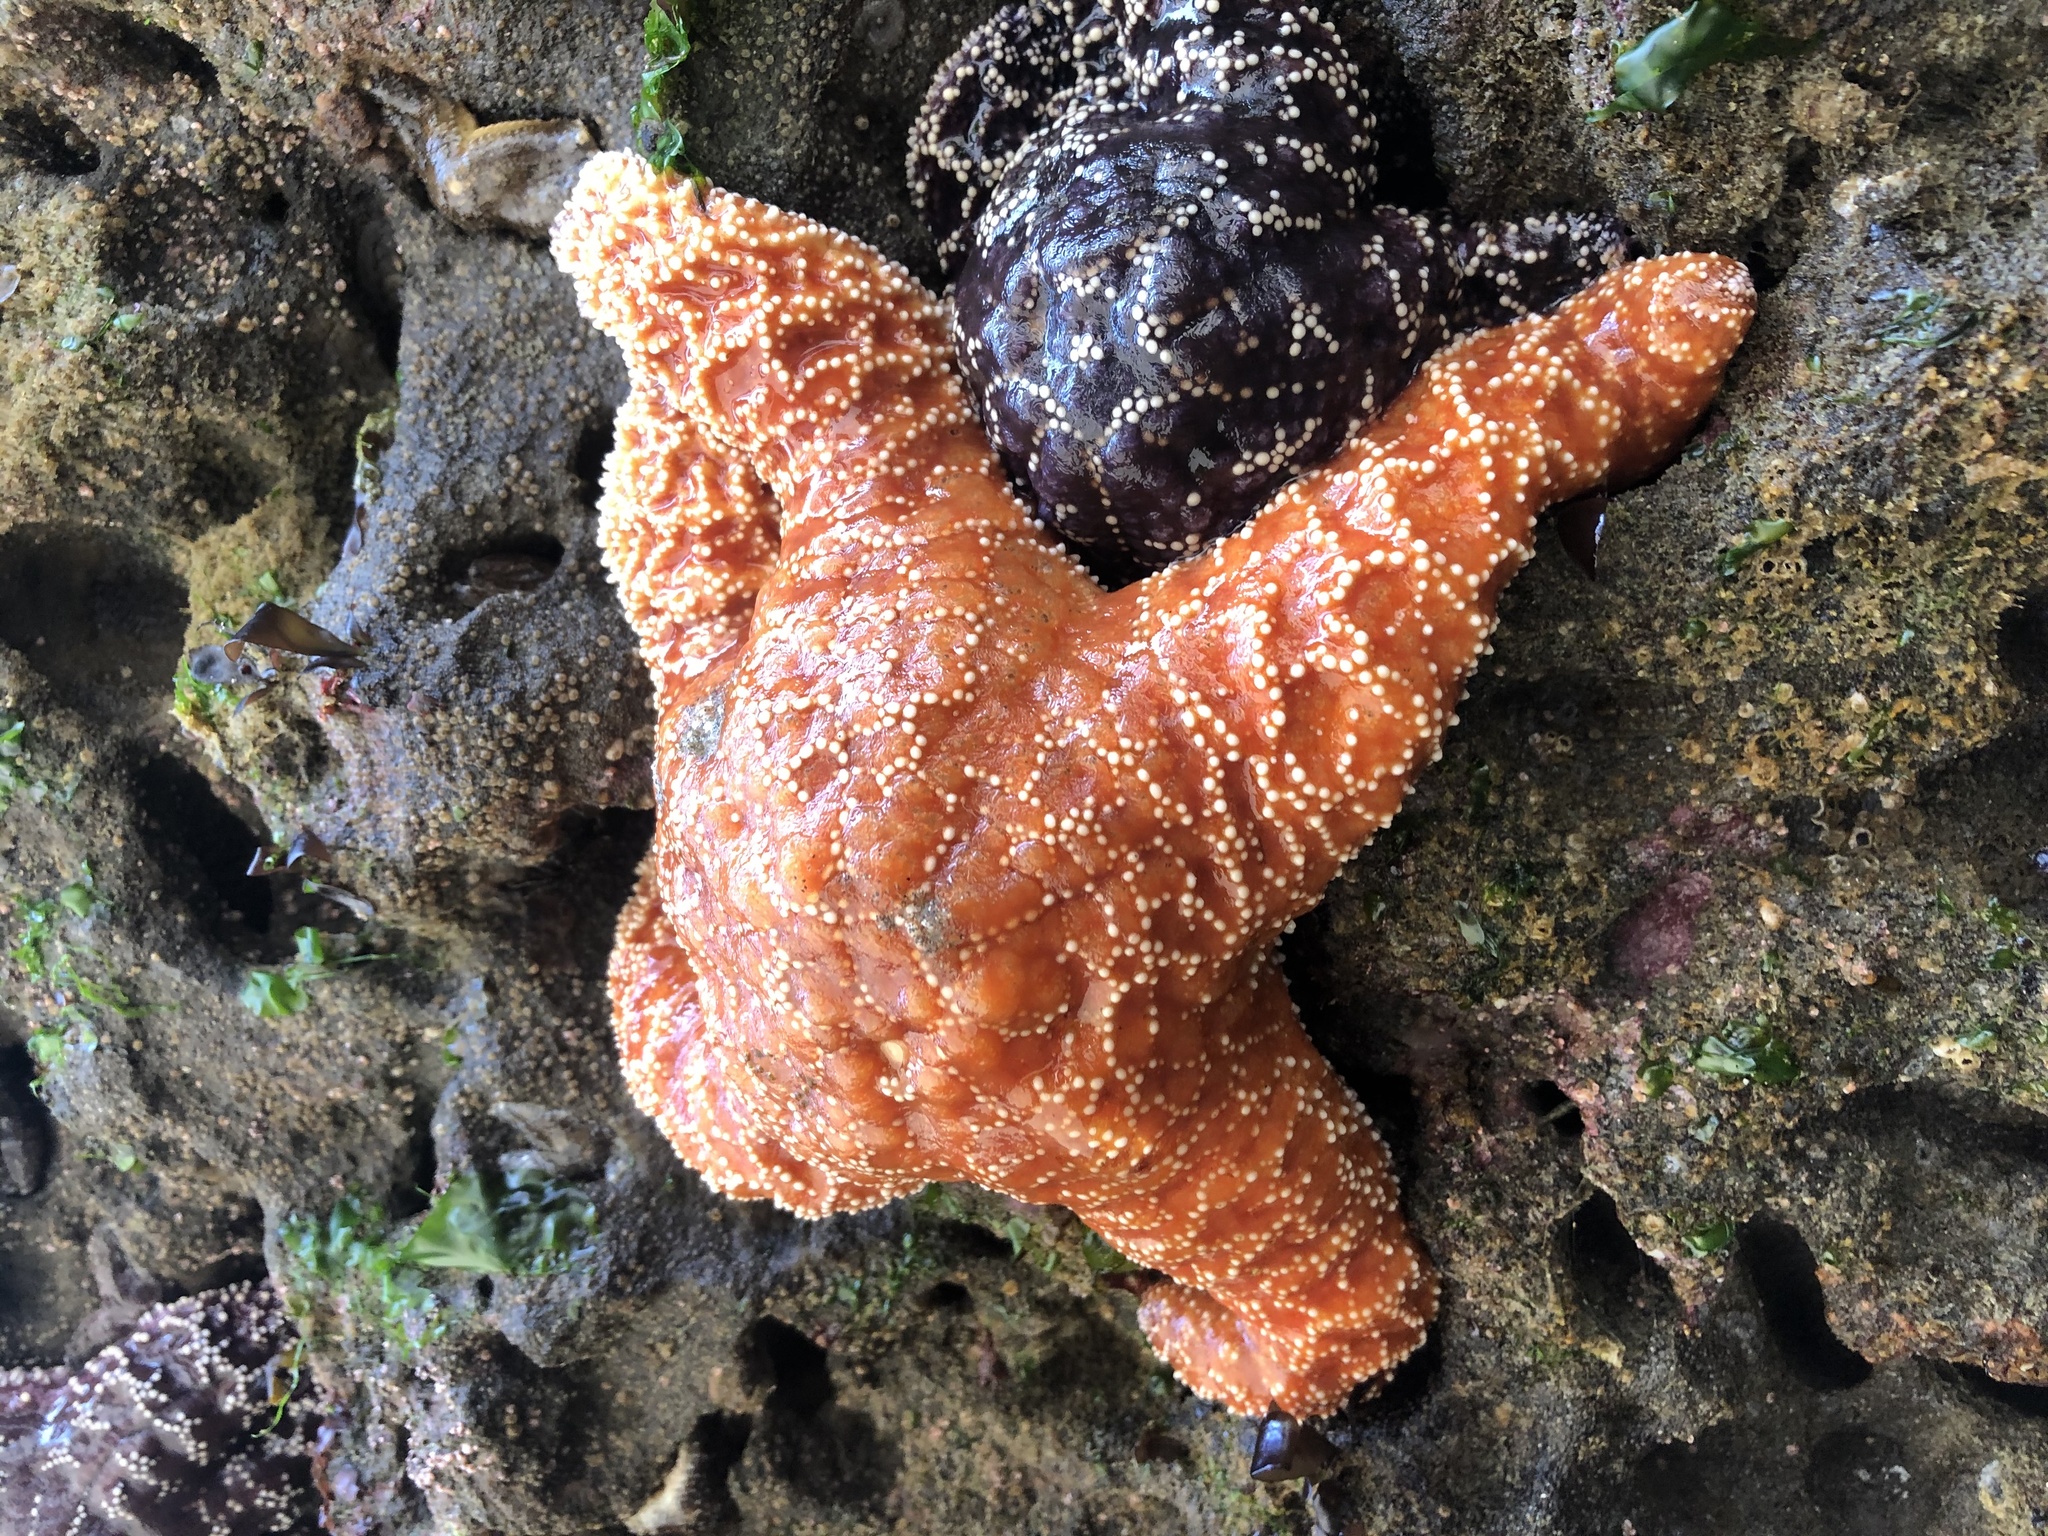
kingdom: Animalia
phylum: Echinodermata
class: Asteroidea
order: Forcipulatida
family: Asteriidae
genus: Pisaster
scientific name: Pisaster ochraceus
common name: Ochre stars
